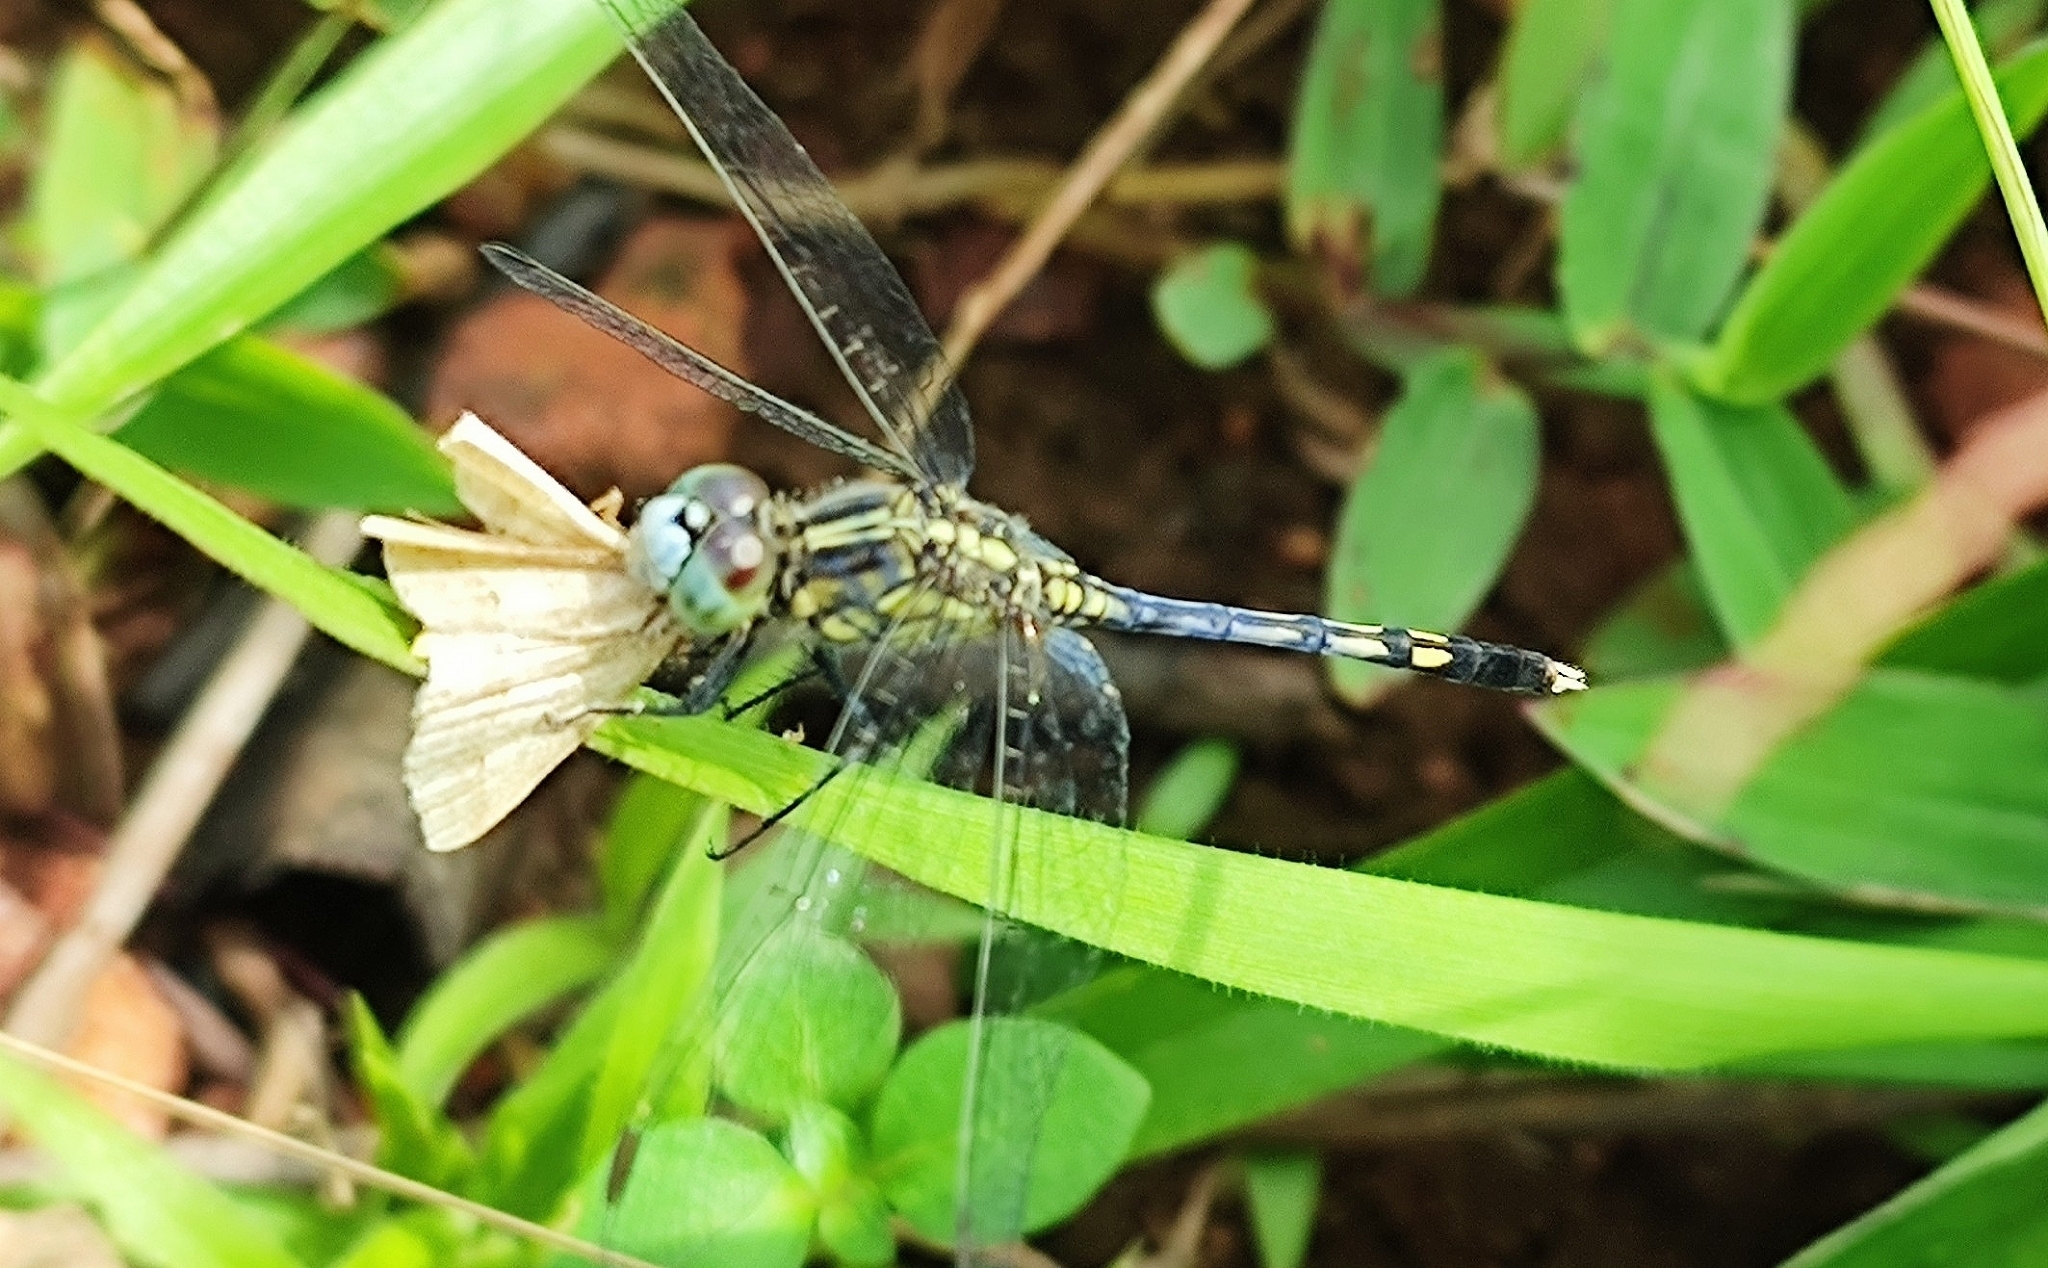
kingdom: Animalia
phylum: Arthropoda
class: Insecta
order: Odonata
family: Libellulidae
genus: Diplacodes
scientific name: Diplacodes trivialis
